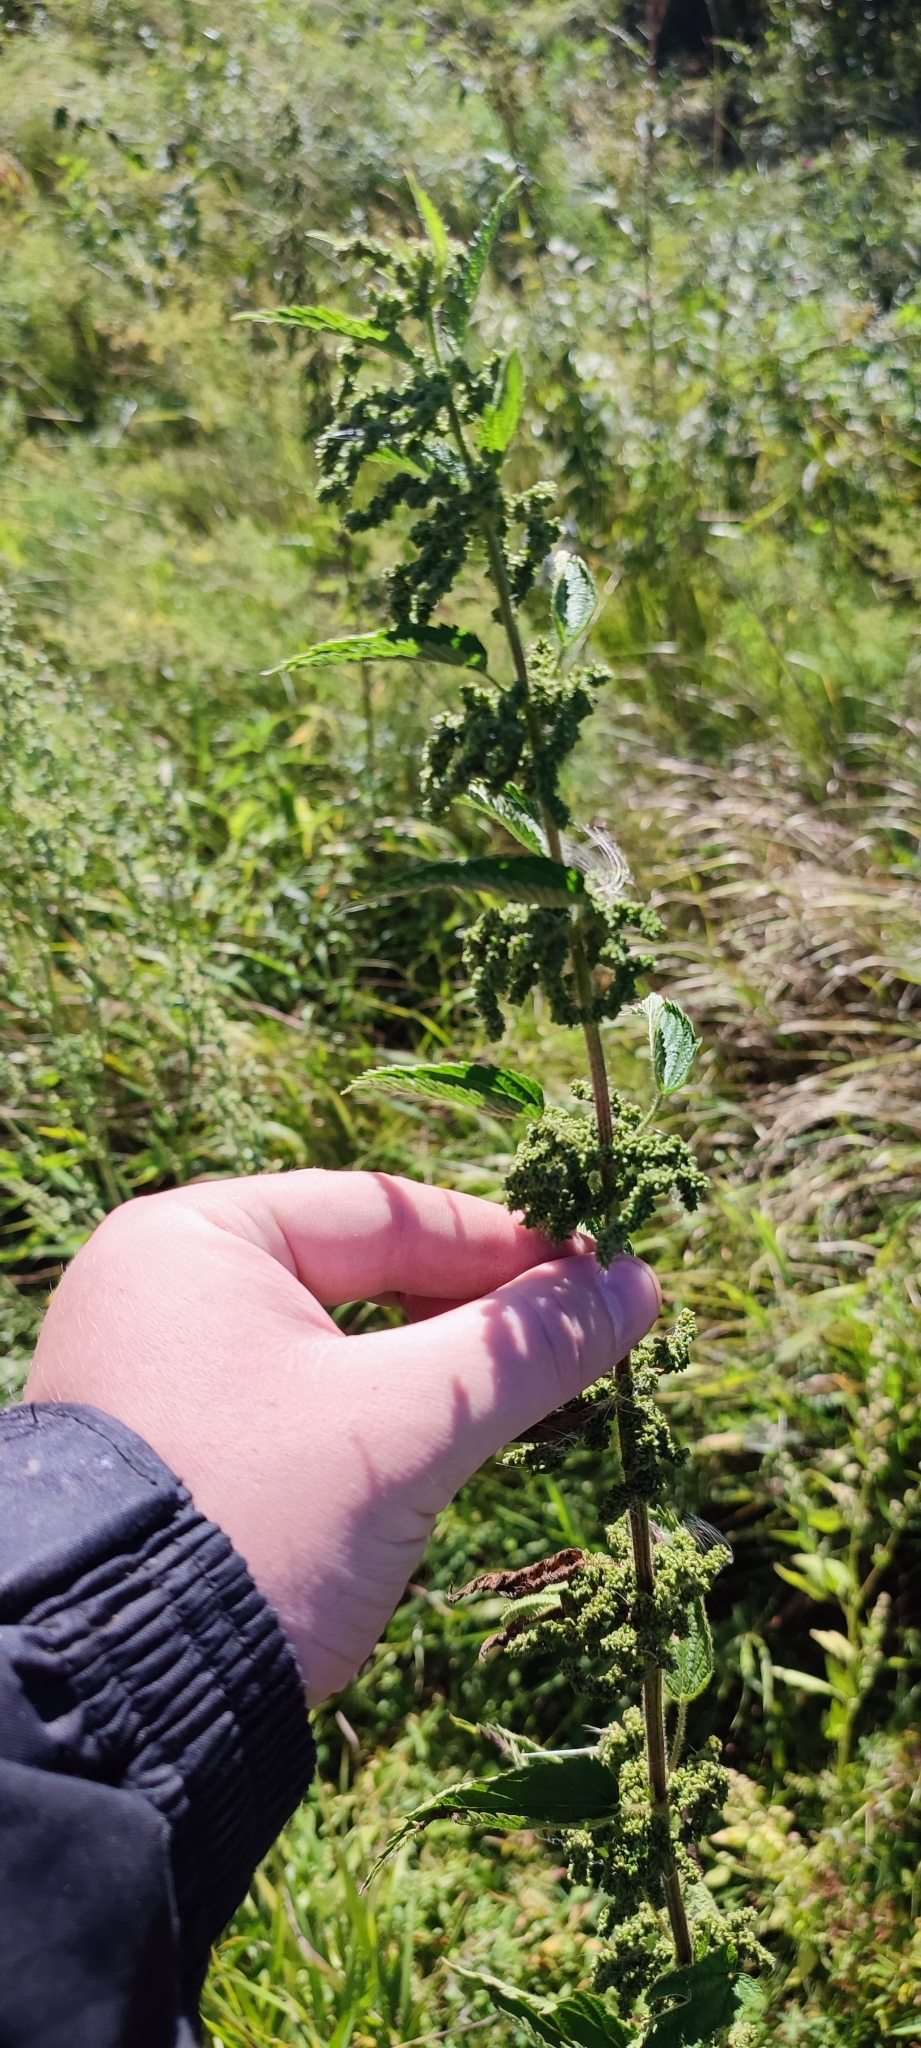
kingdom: Plantae
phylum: Tracheophyta
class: Magnoliopsida
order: Rosales
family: Urticaceae
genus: Urtica
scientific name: Urtica dioica
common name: Common nettle
